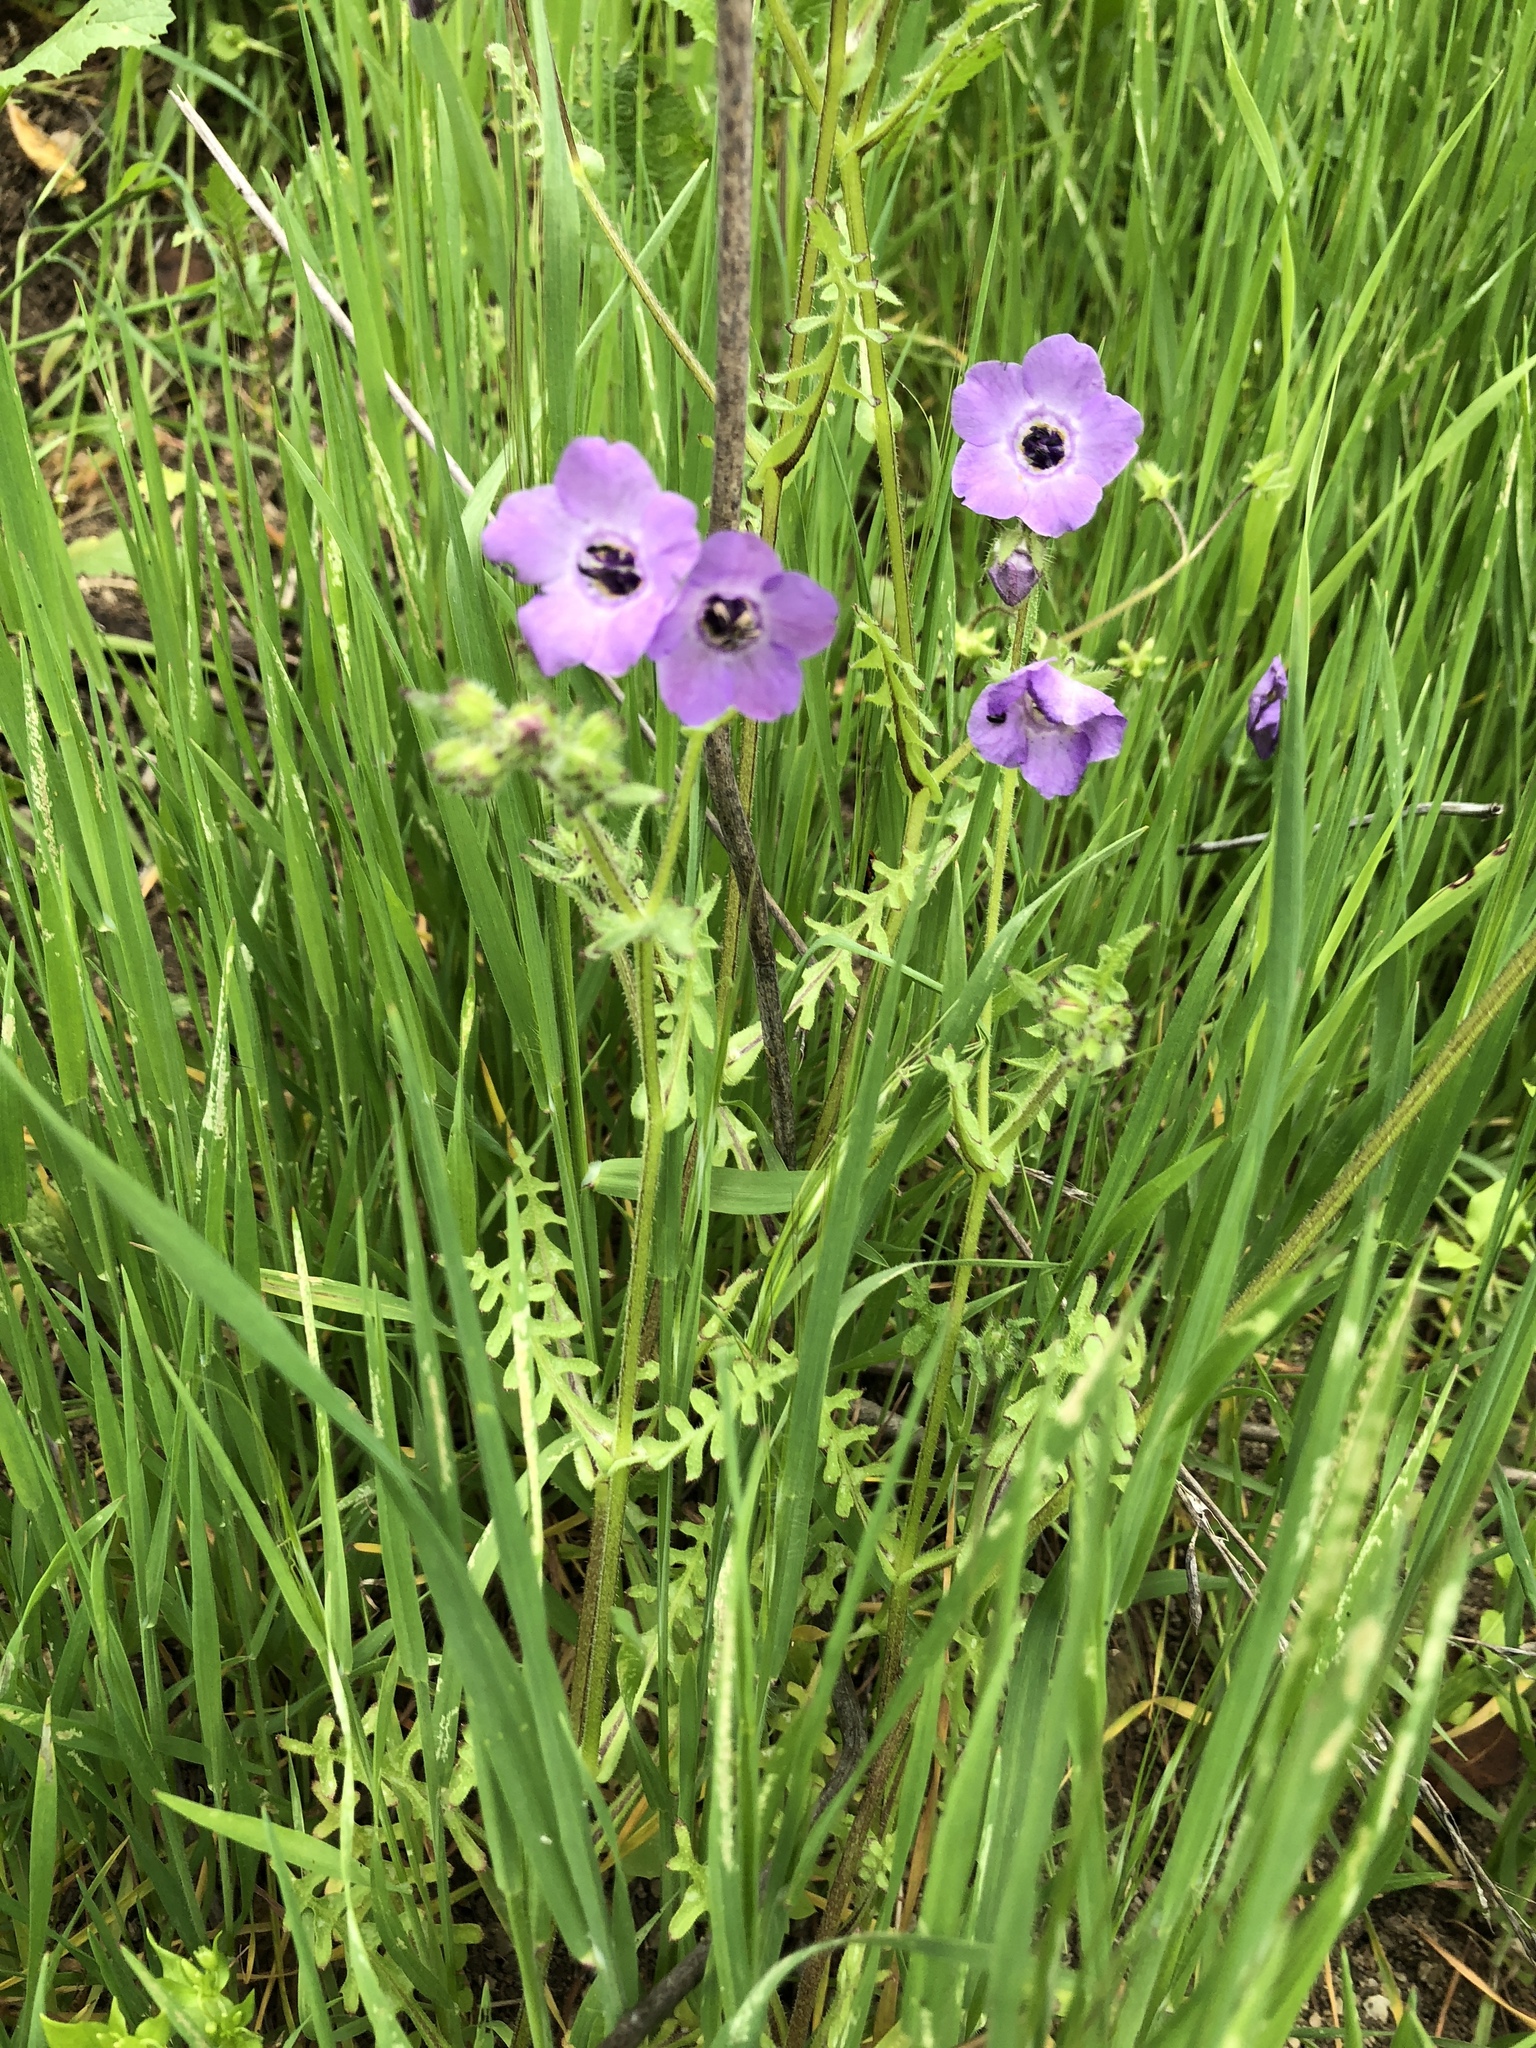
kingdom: Plantae
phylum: Tracheophyta
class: Magnoliopsida
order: Boraginales
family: Hydrophyllaceae
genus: Pholistoma
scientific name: Pholistoma auritum
